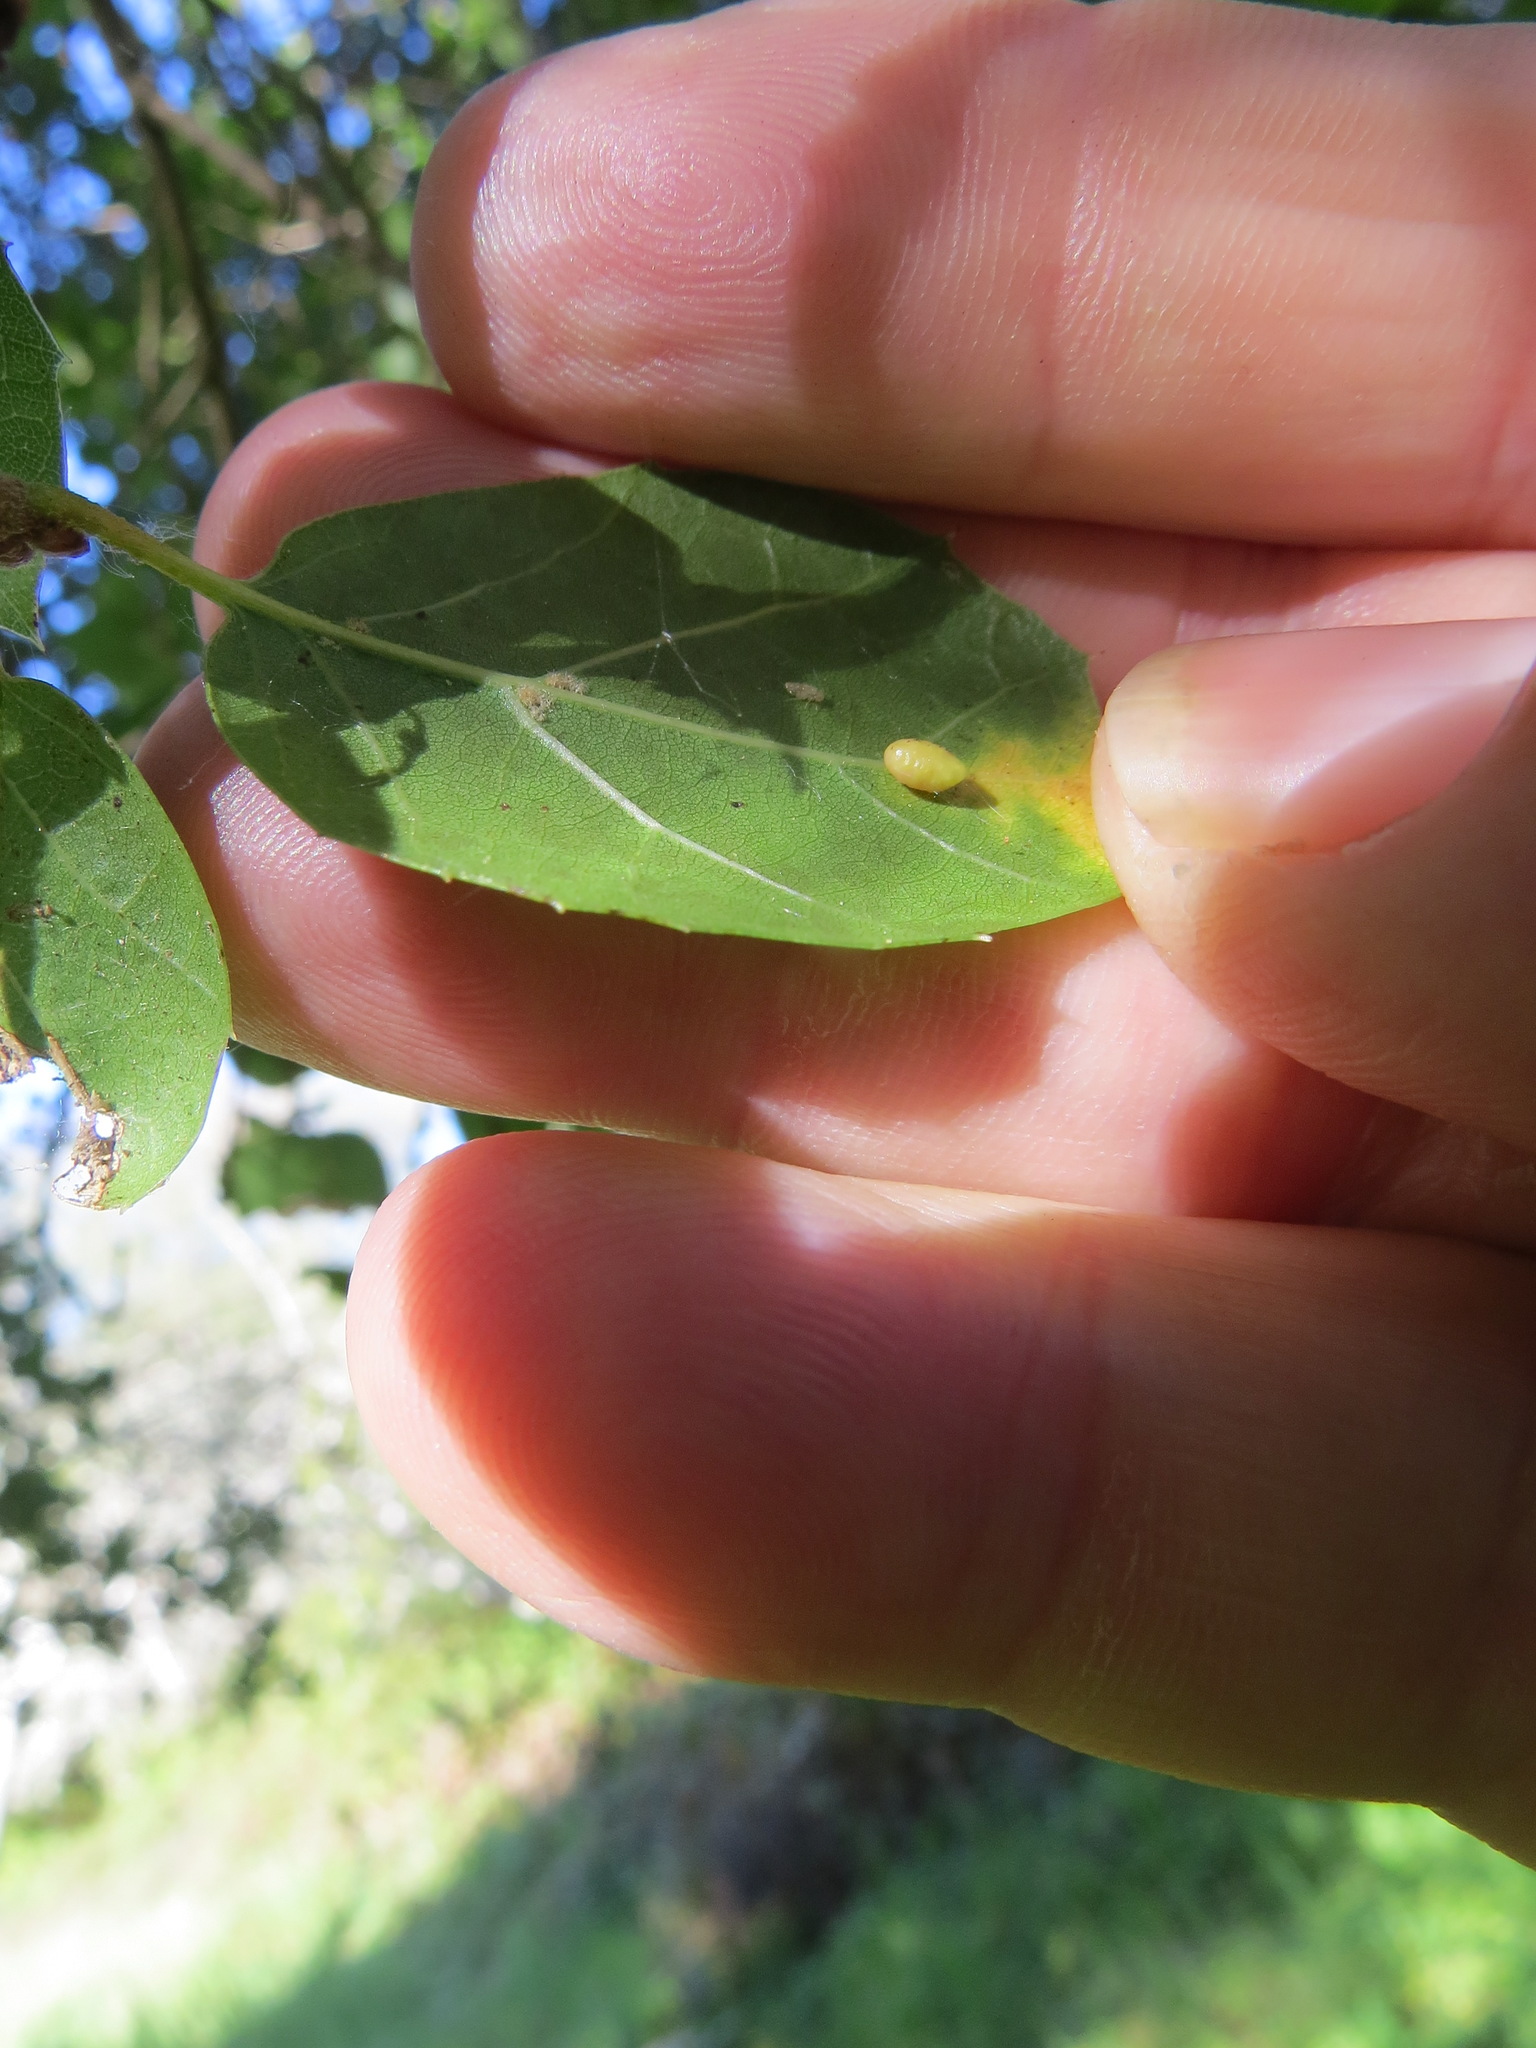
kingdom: Animalia
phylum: Arthropoda
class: Insecta
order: Hymenoptera
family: Cynipidae
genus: Dryocosmus
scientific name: Dryocosmus
